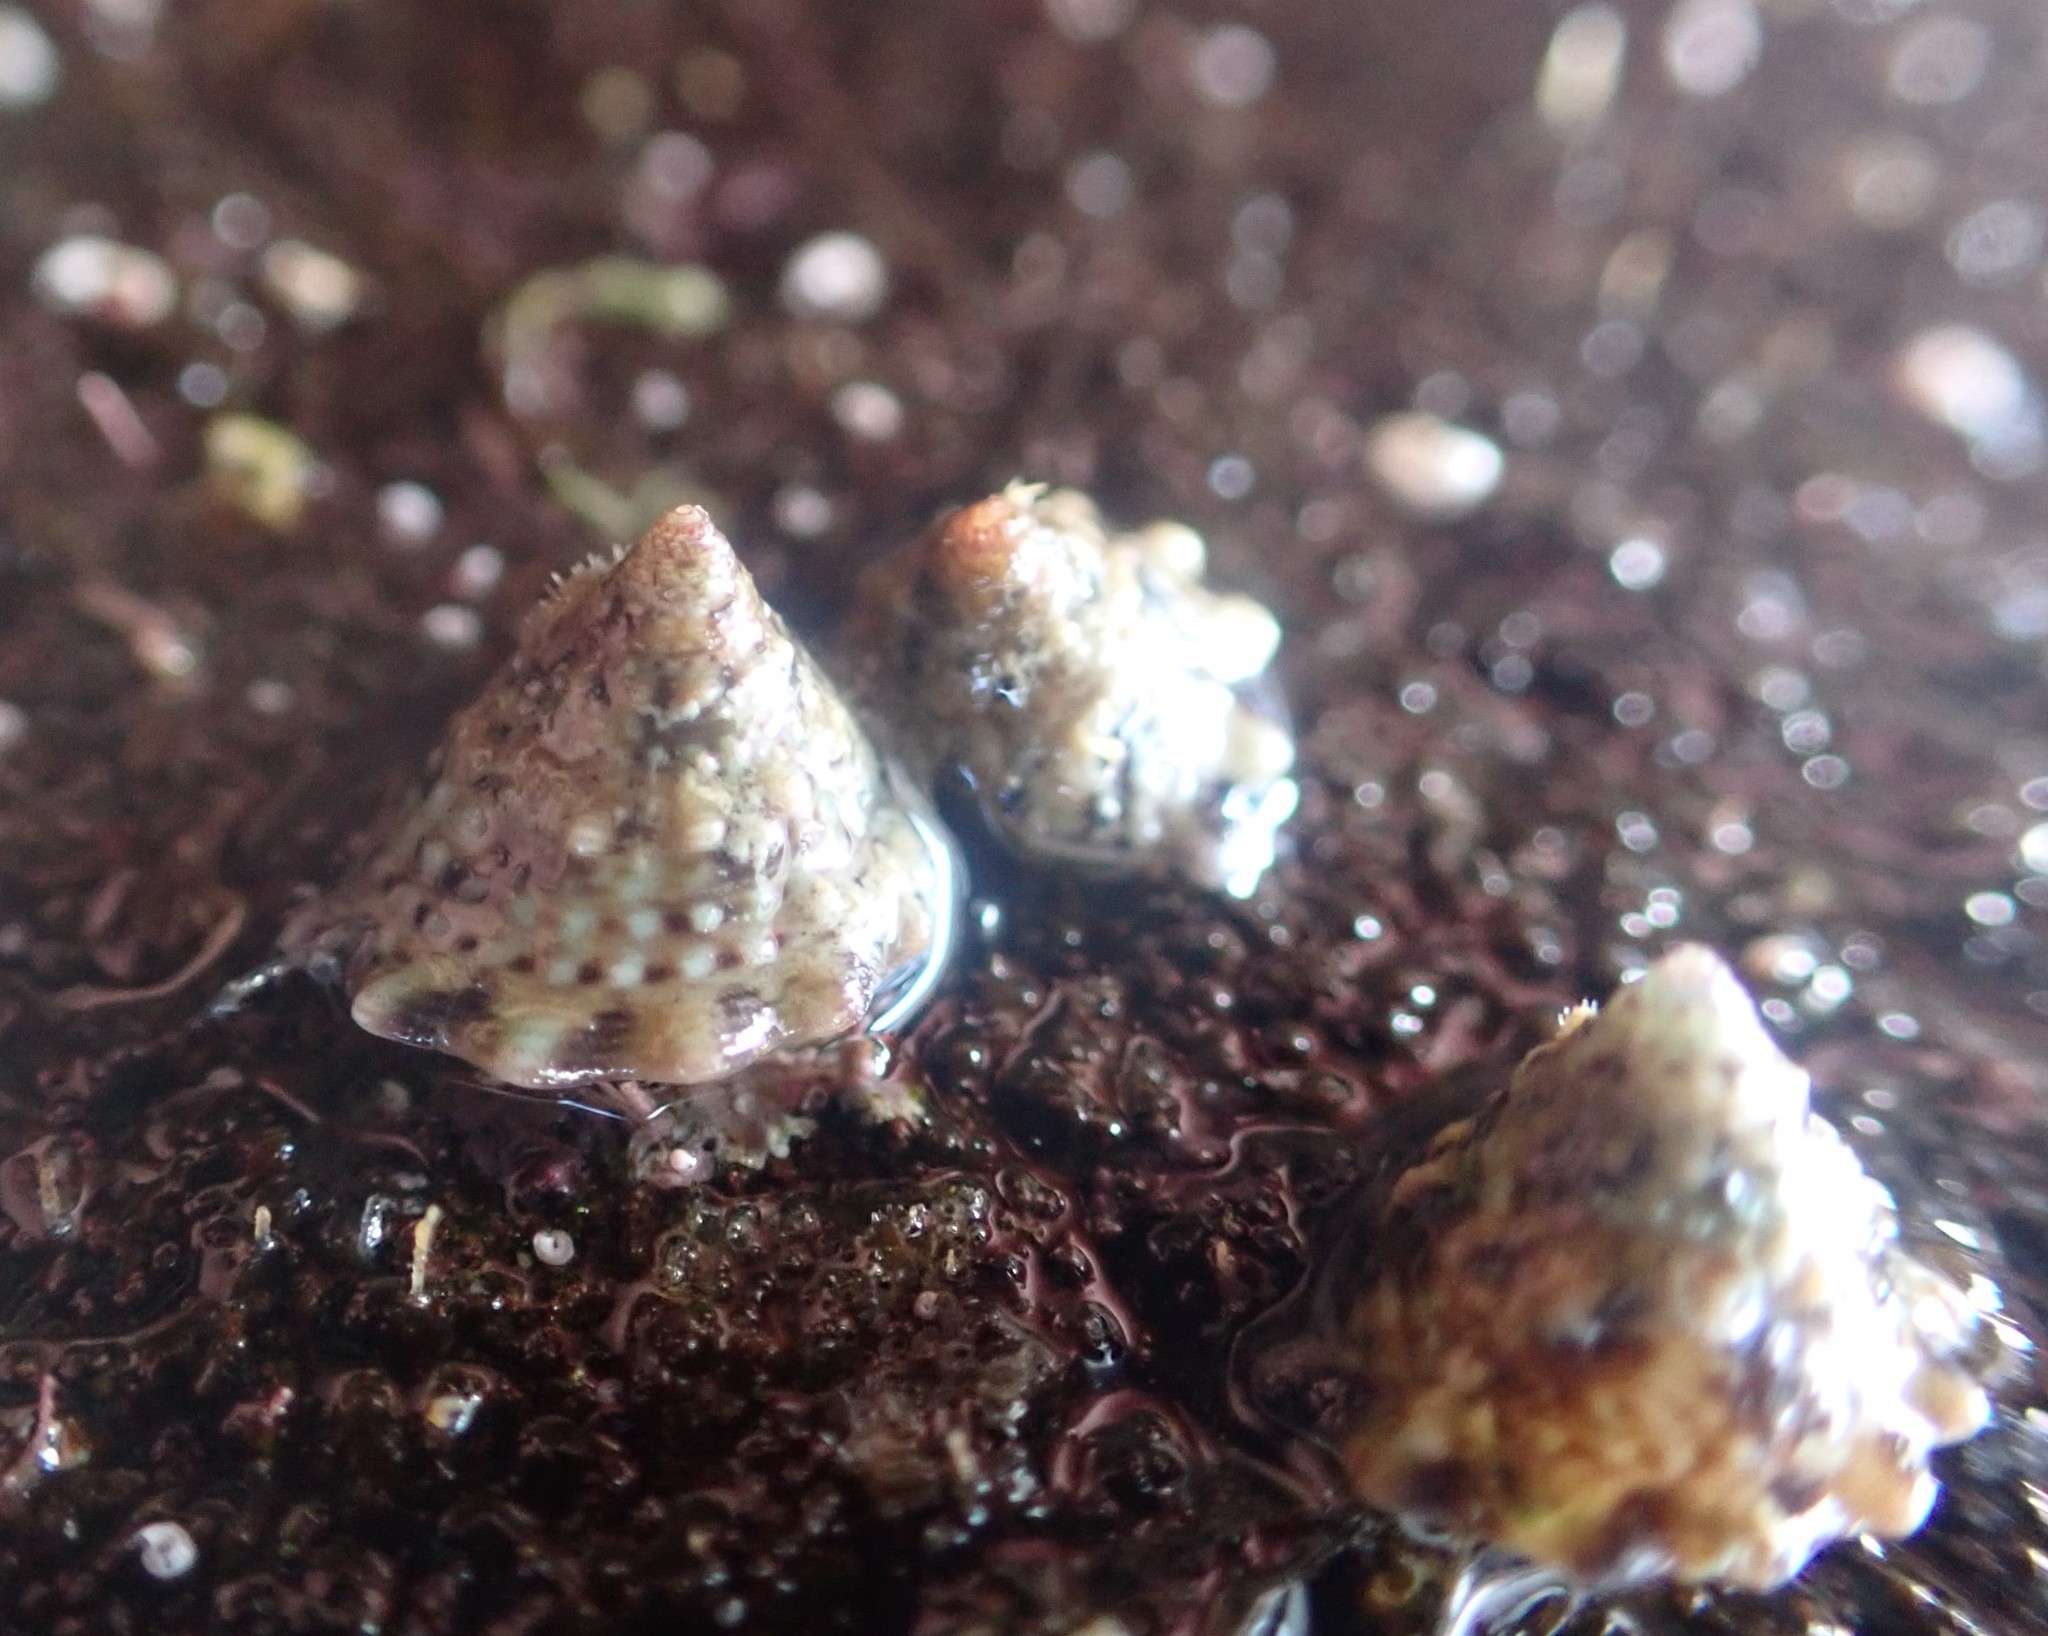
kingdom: Animalia
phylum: Mollusca
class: Gastropoda
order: Trochida
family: Trochidae
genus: Coelotrochus
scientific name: Coelotrochus viridis
